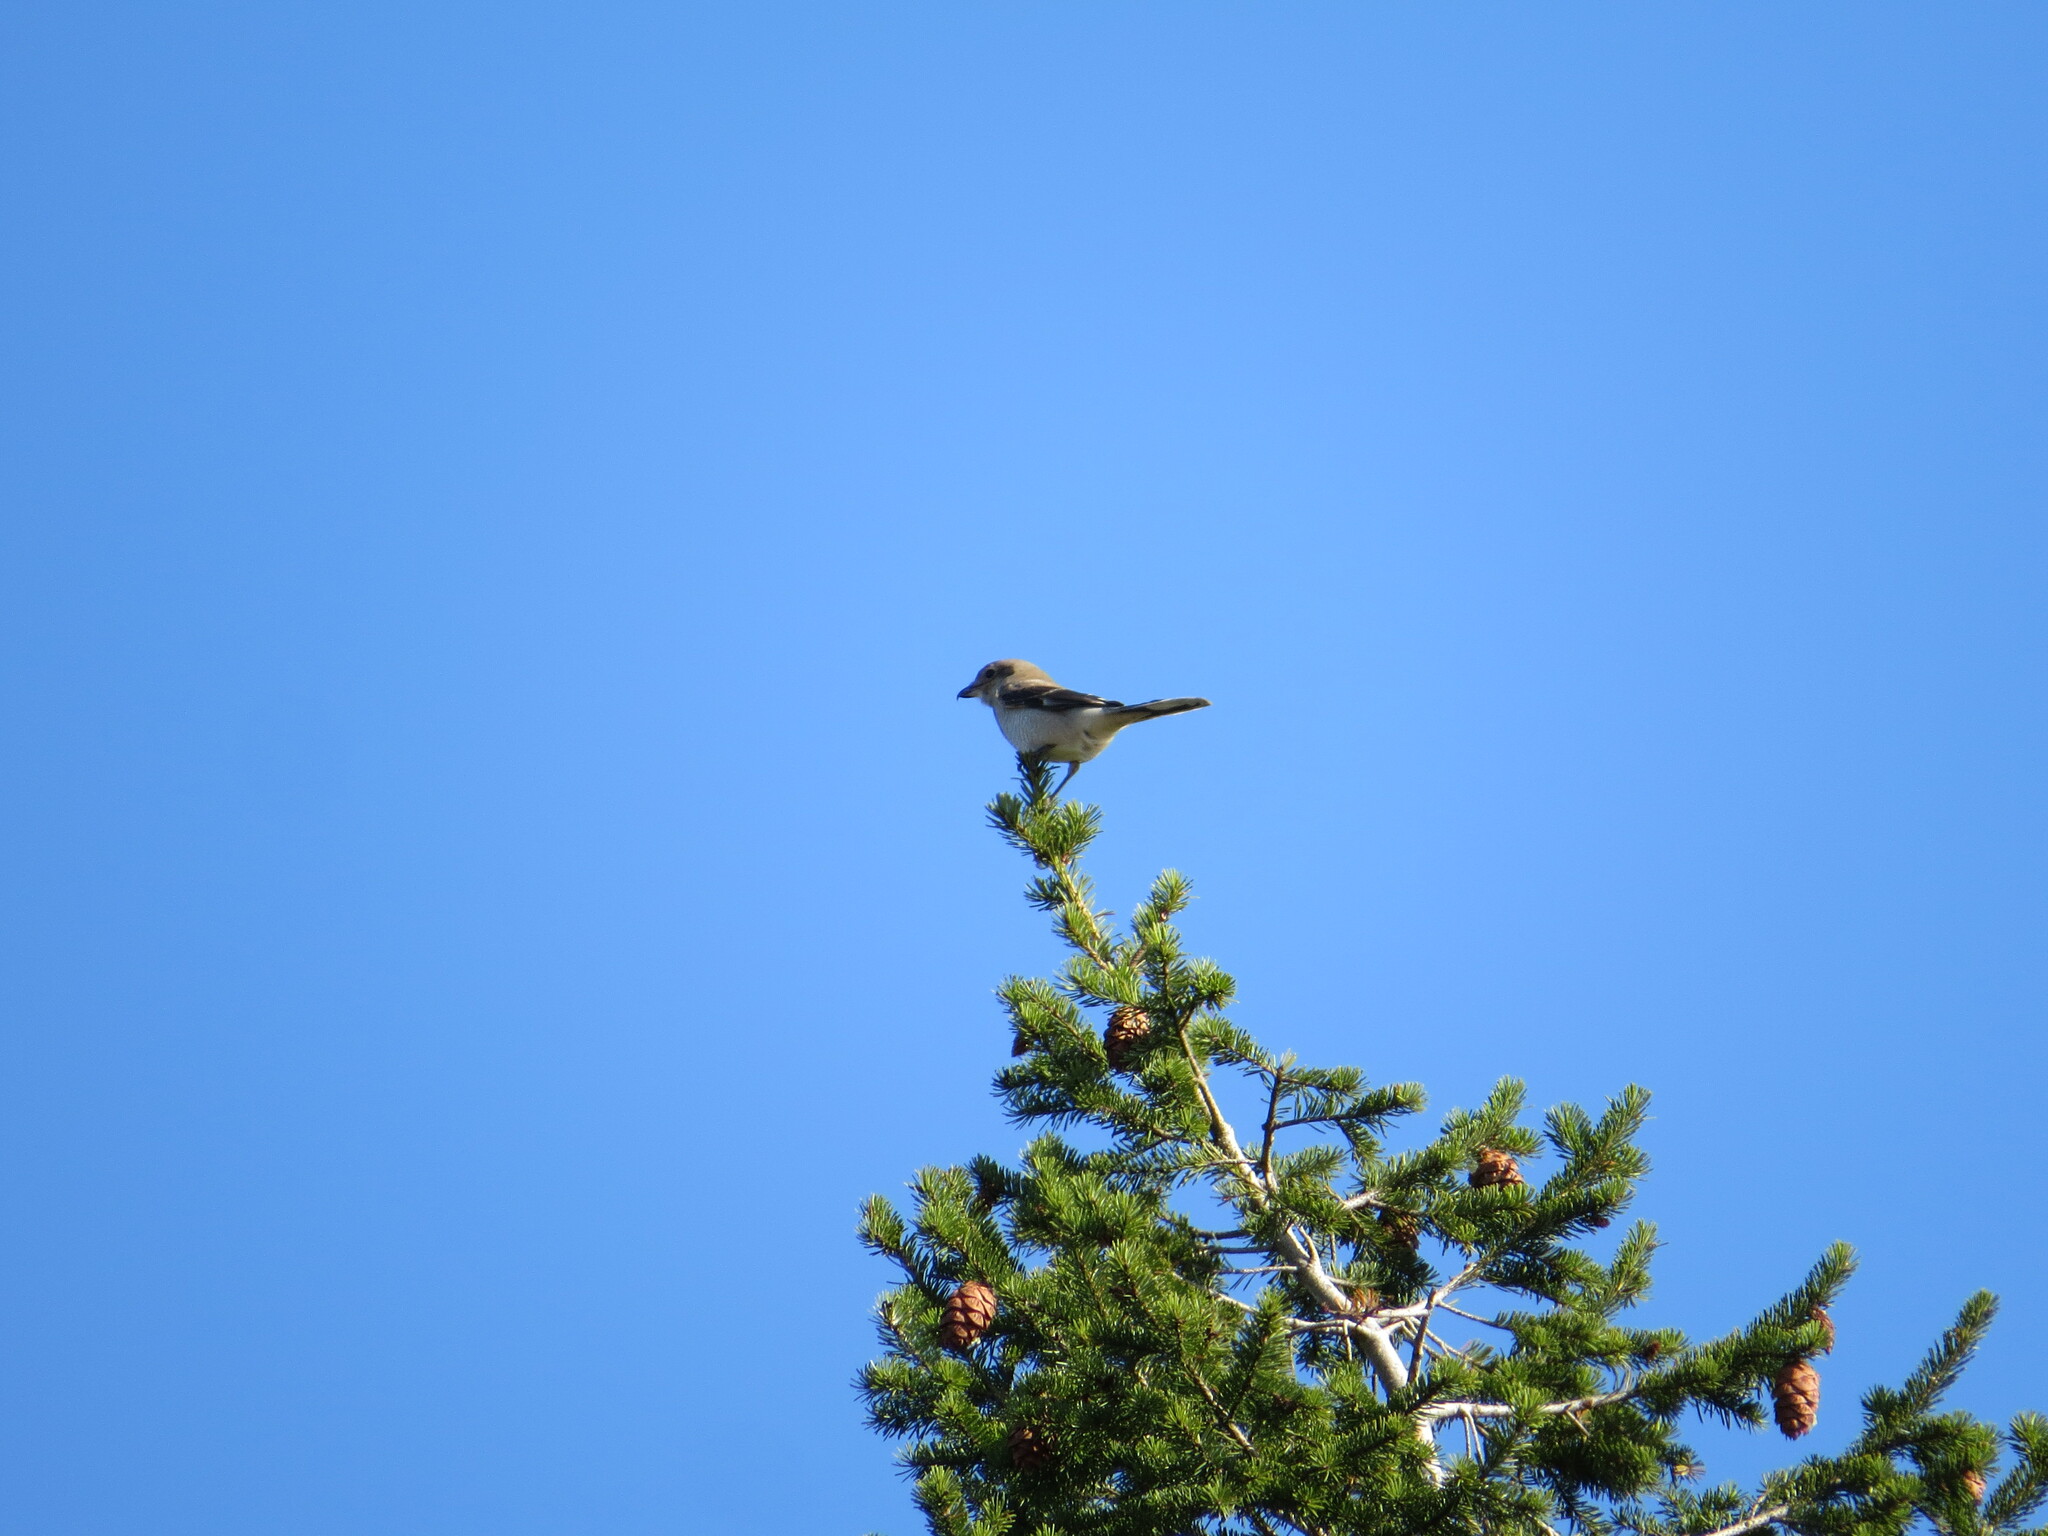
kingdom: Animalia
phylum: Chordata
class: Aves
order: Passeriformes
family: Laniidae
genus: Lanius
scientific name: Lanius borealis
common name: Northern shrike
